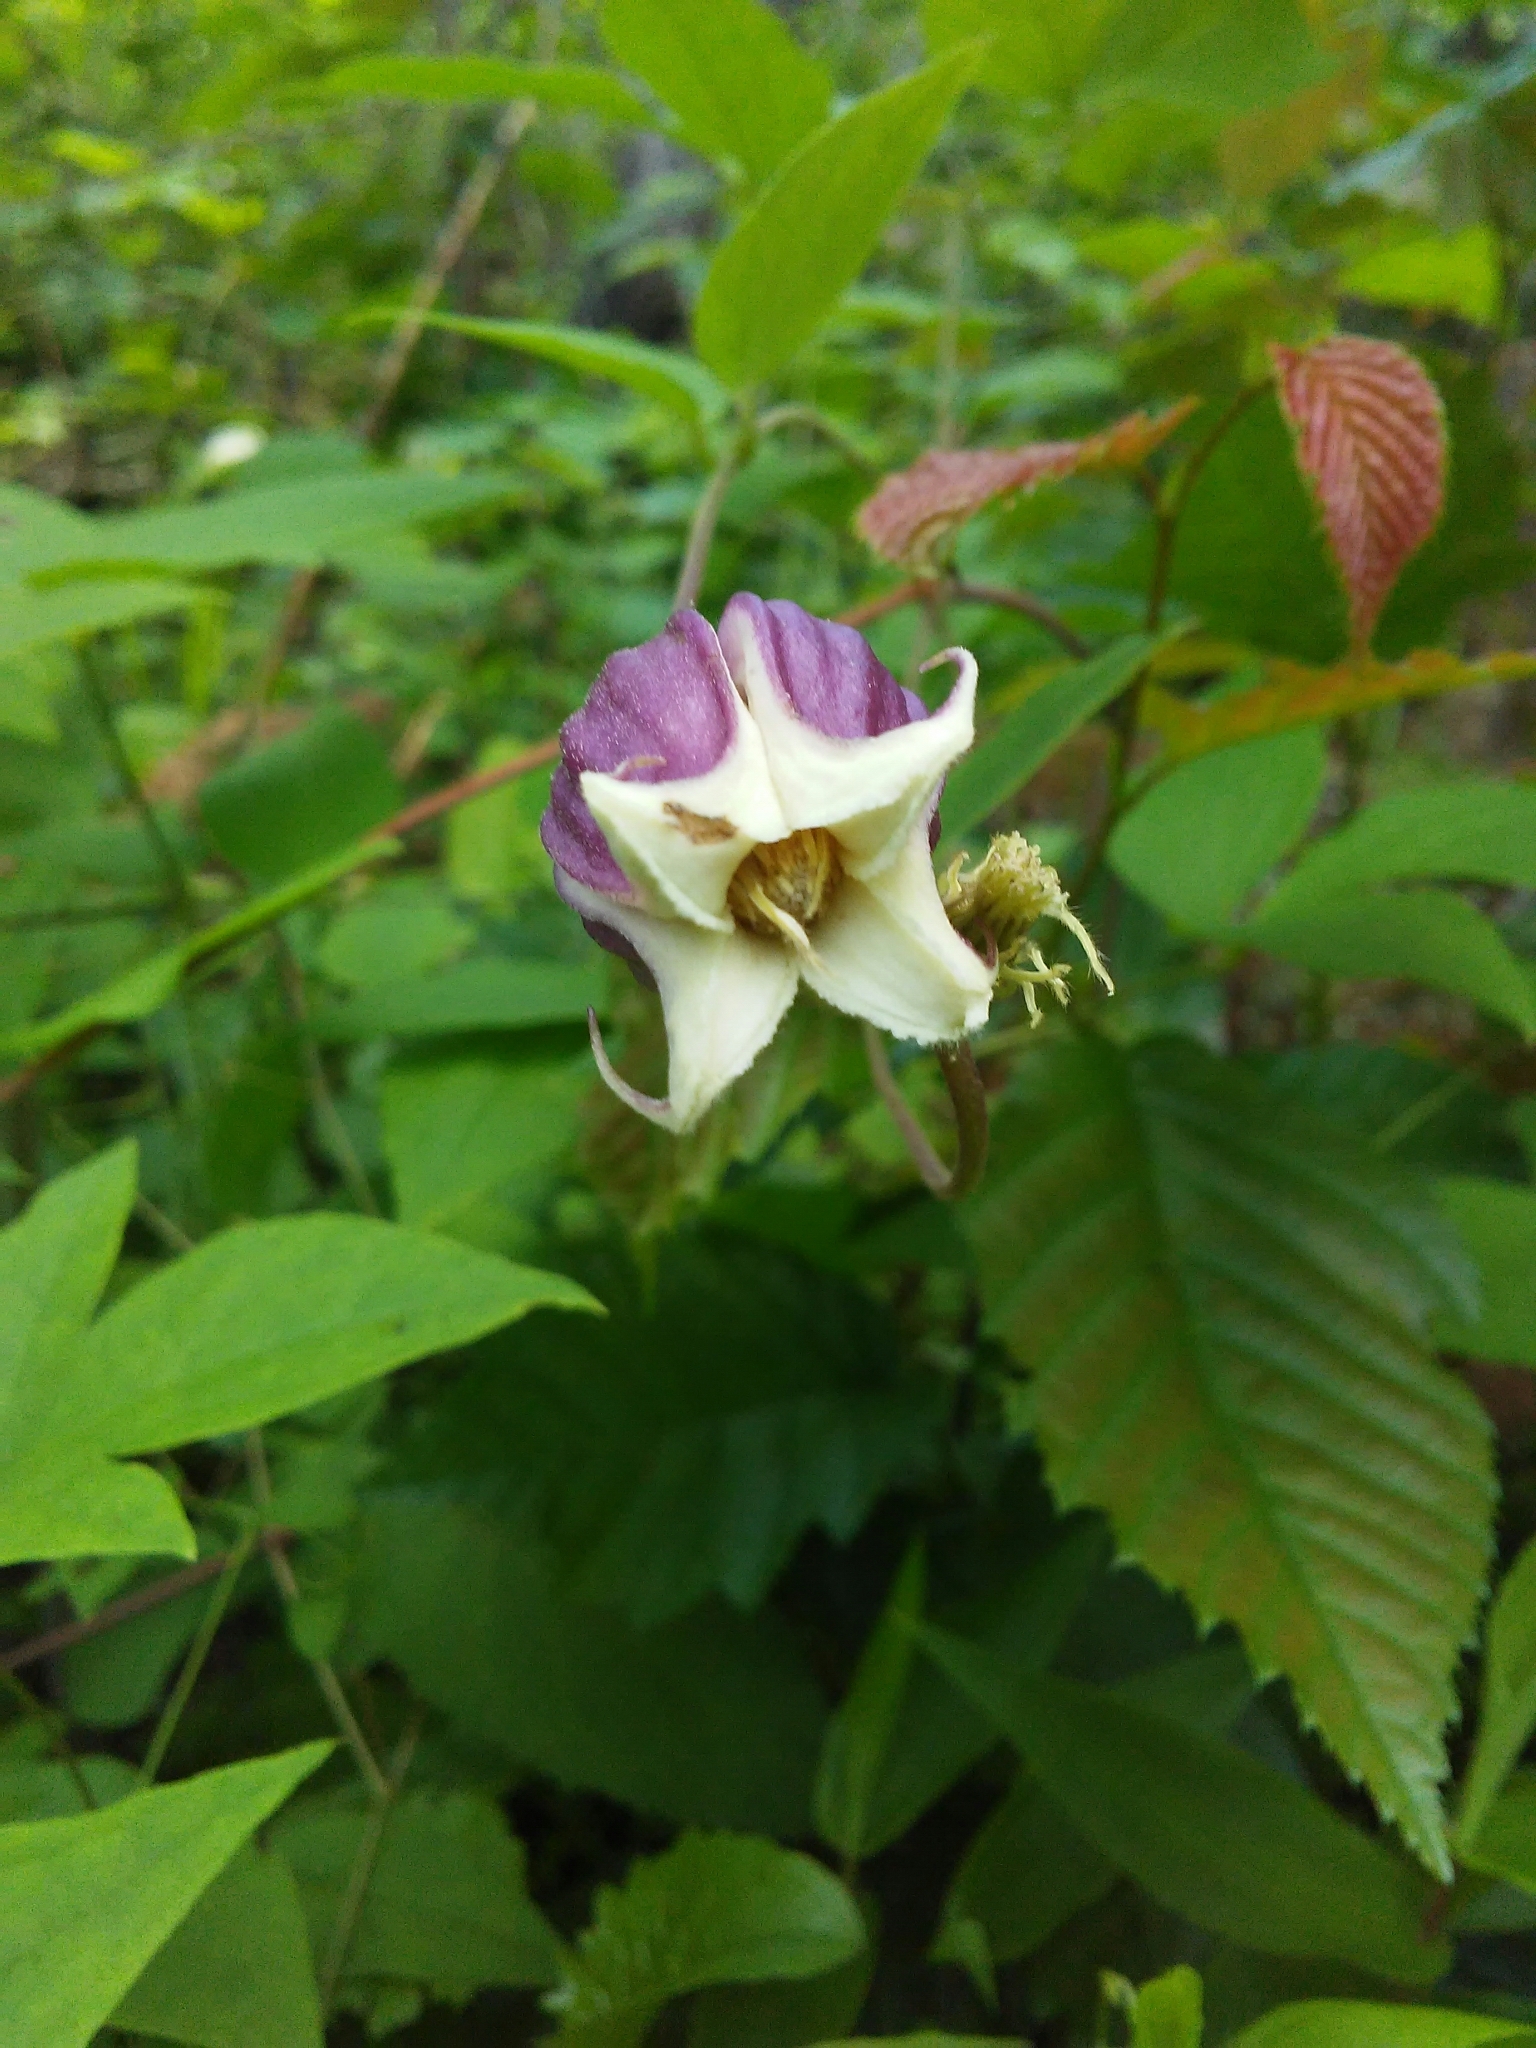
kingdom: Plantae
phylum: Tracheophyta
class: Magnoliopsida
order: Ranunculales
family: Ranunculaceae
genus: Clematis
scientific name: Clematis viorna
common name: Leather-flower
